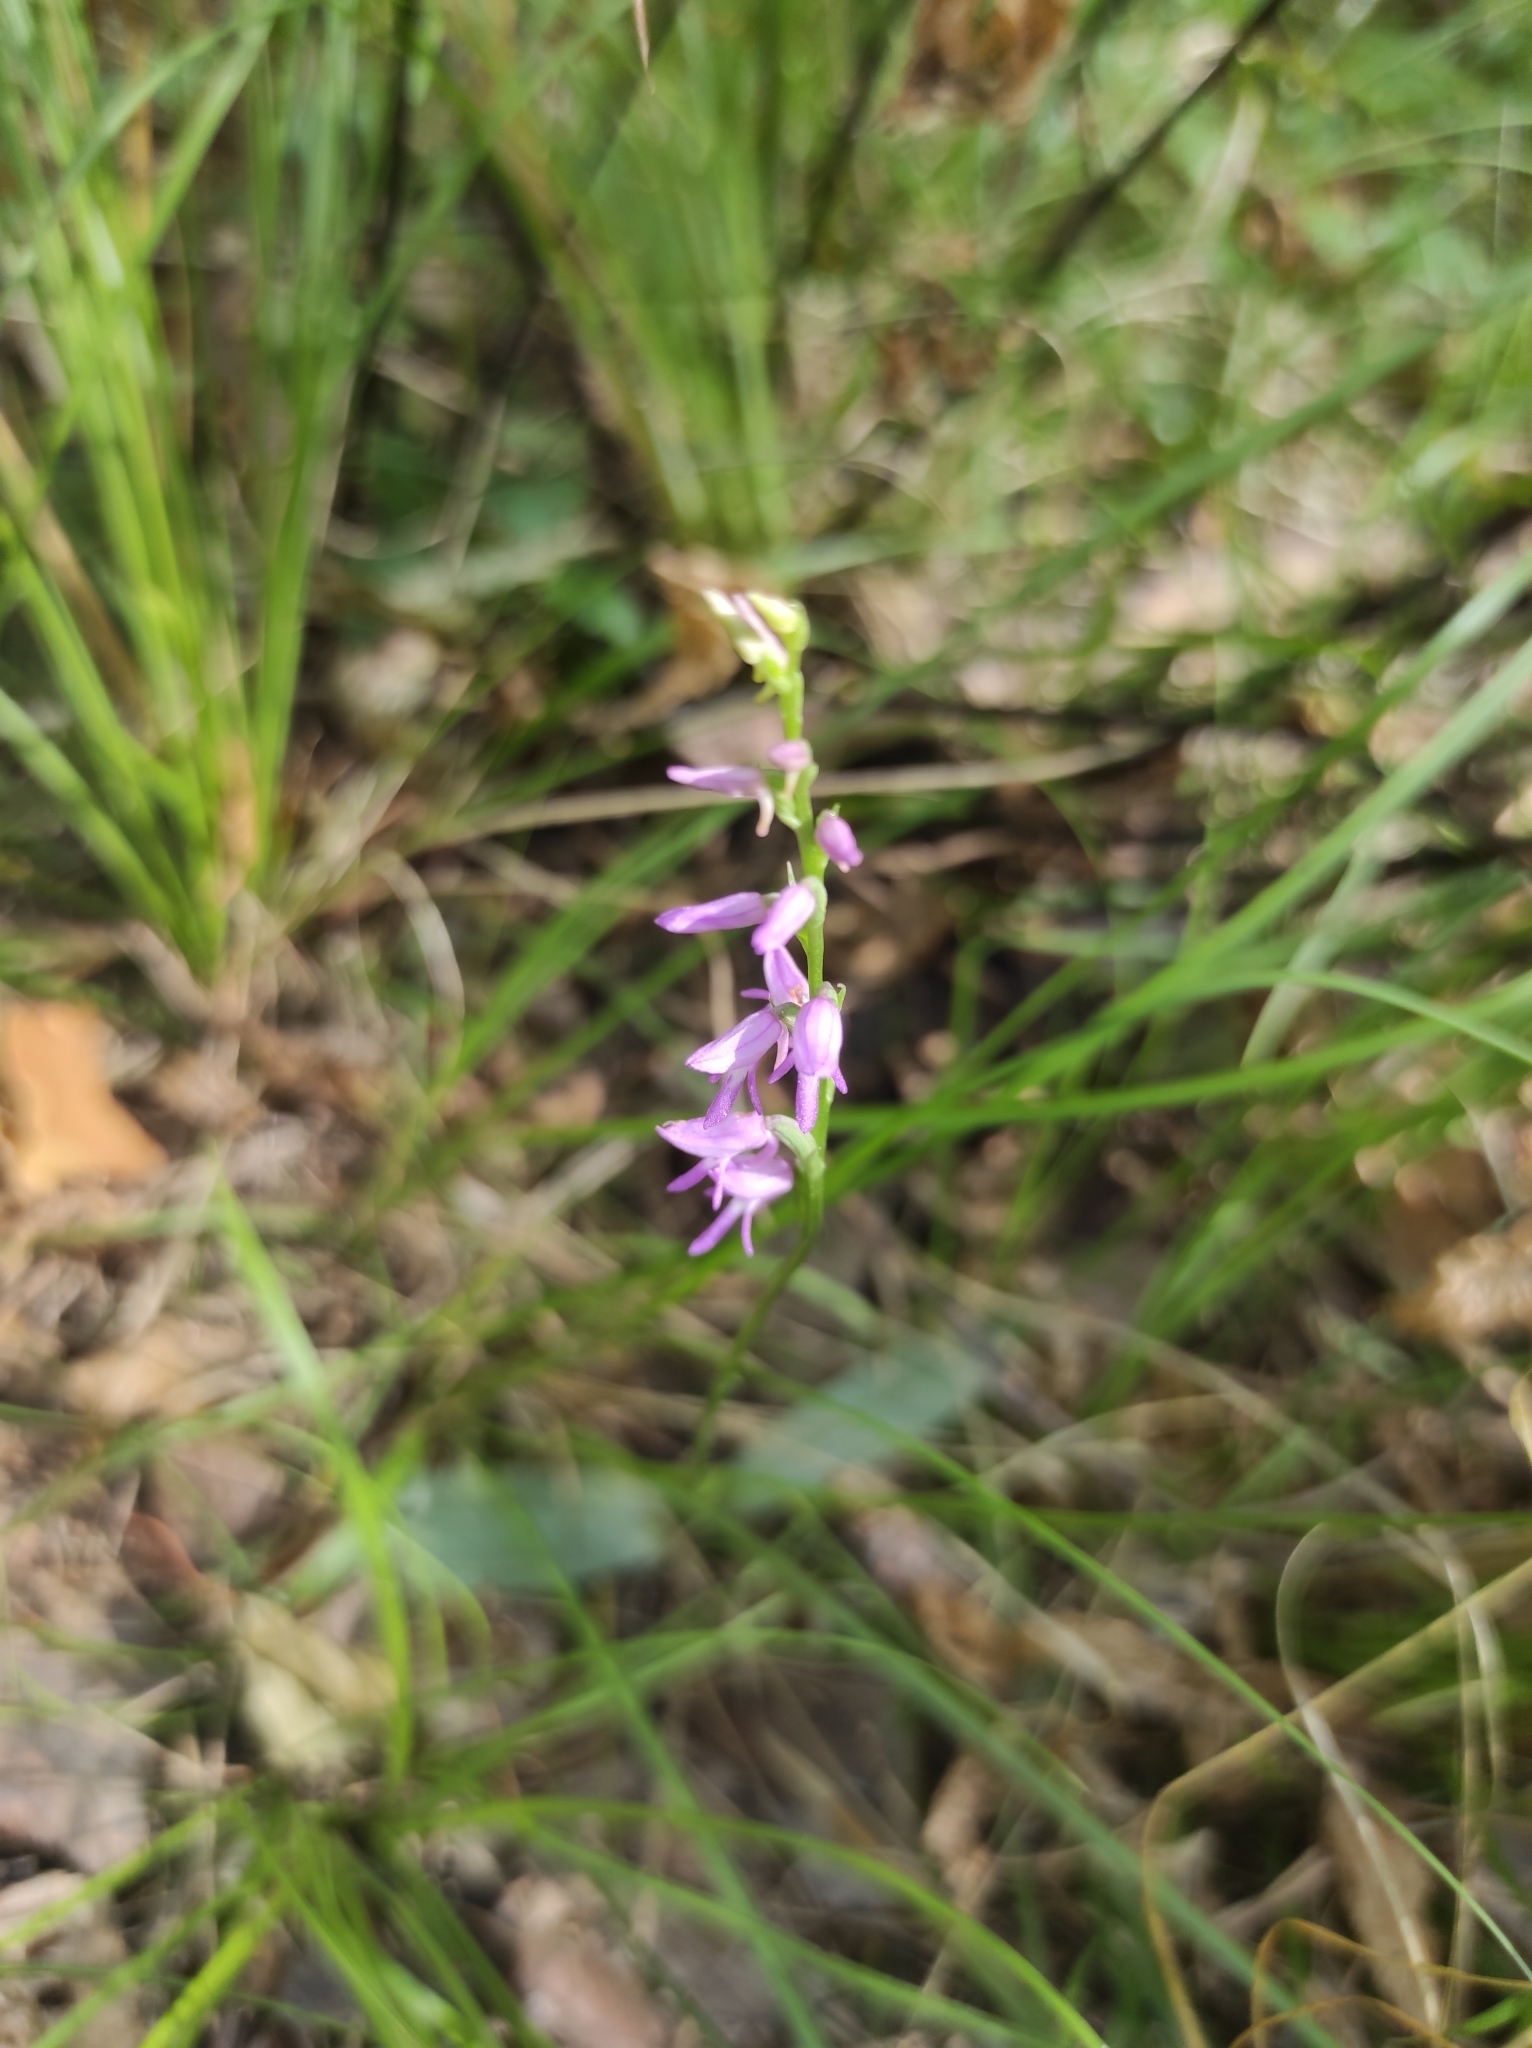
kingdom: Plantae
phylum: Tracheophyta
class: Liliopsida
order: Asparagales
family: Orchidaceae
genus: Hemipilia
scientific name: Hemipilia cucullata
